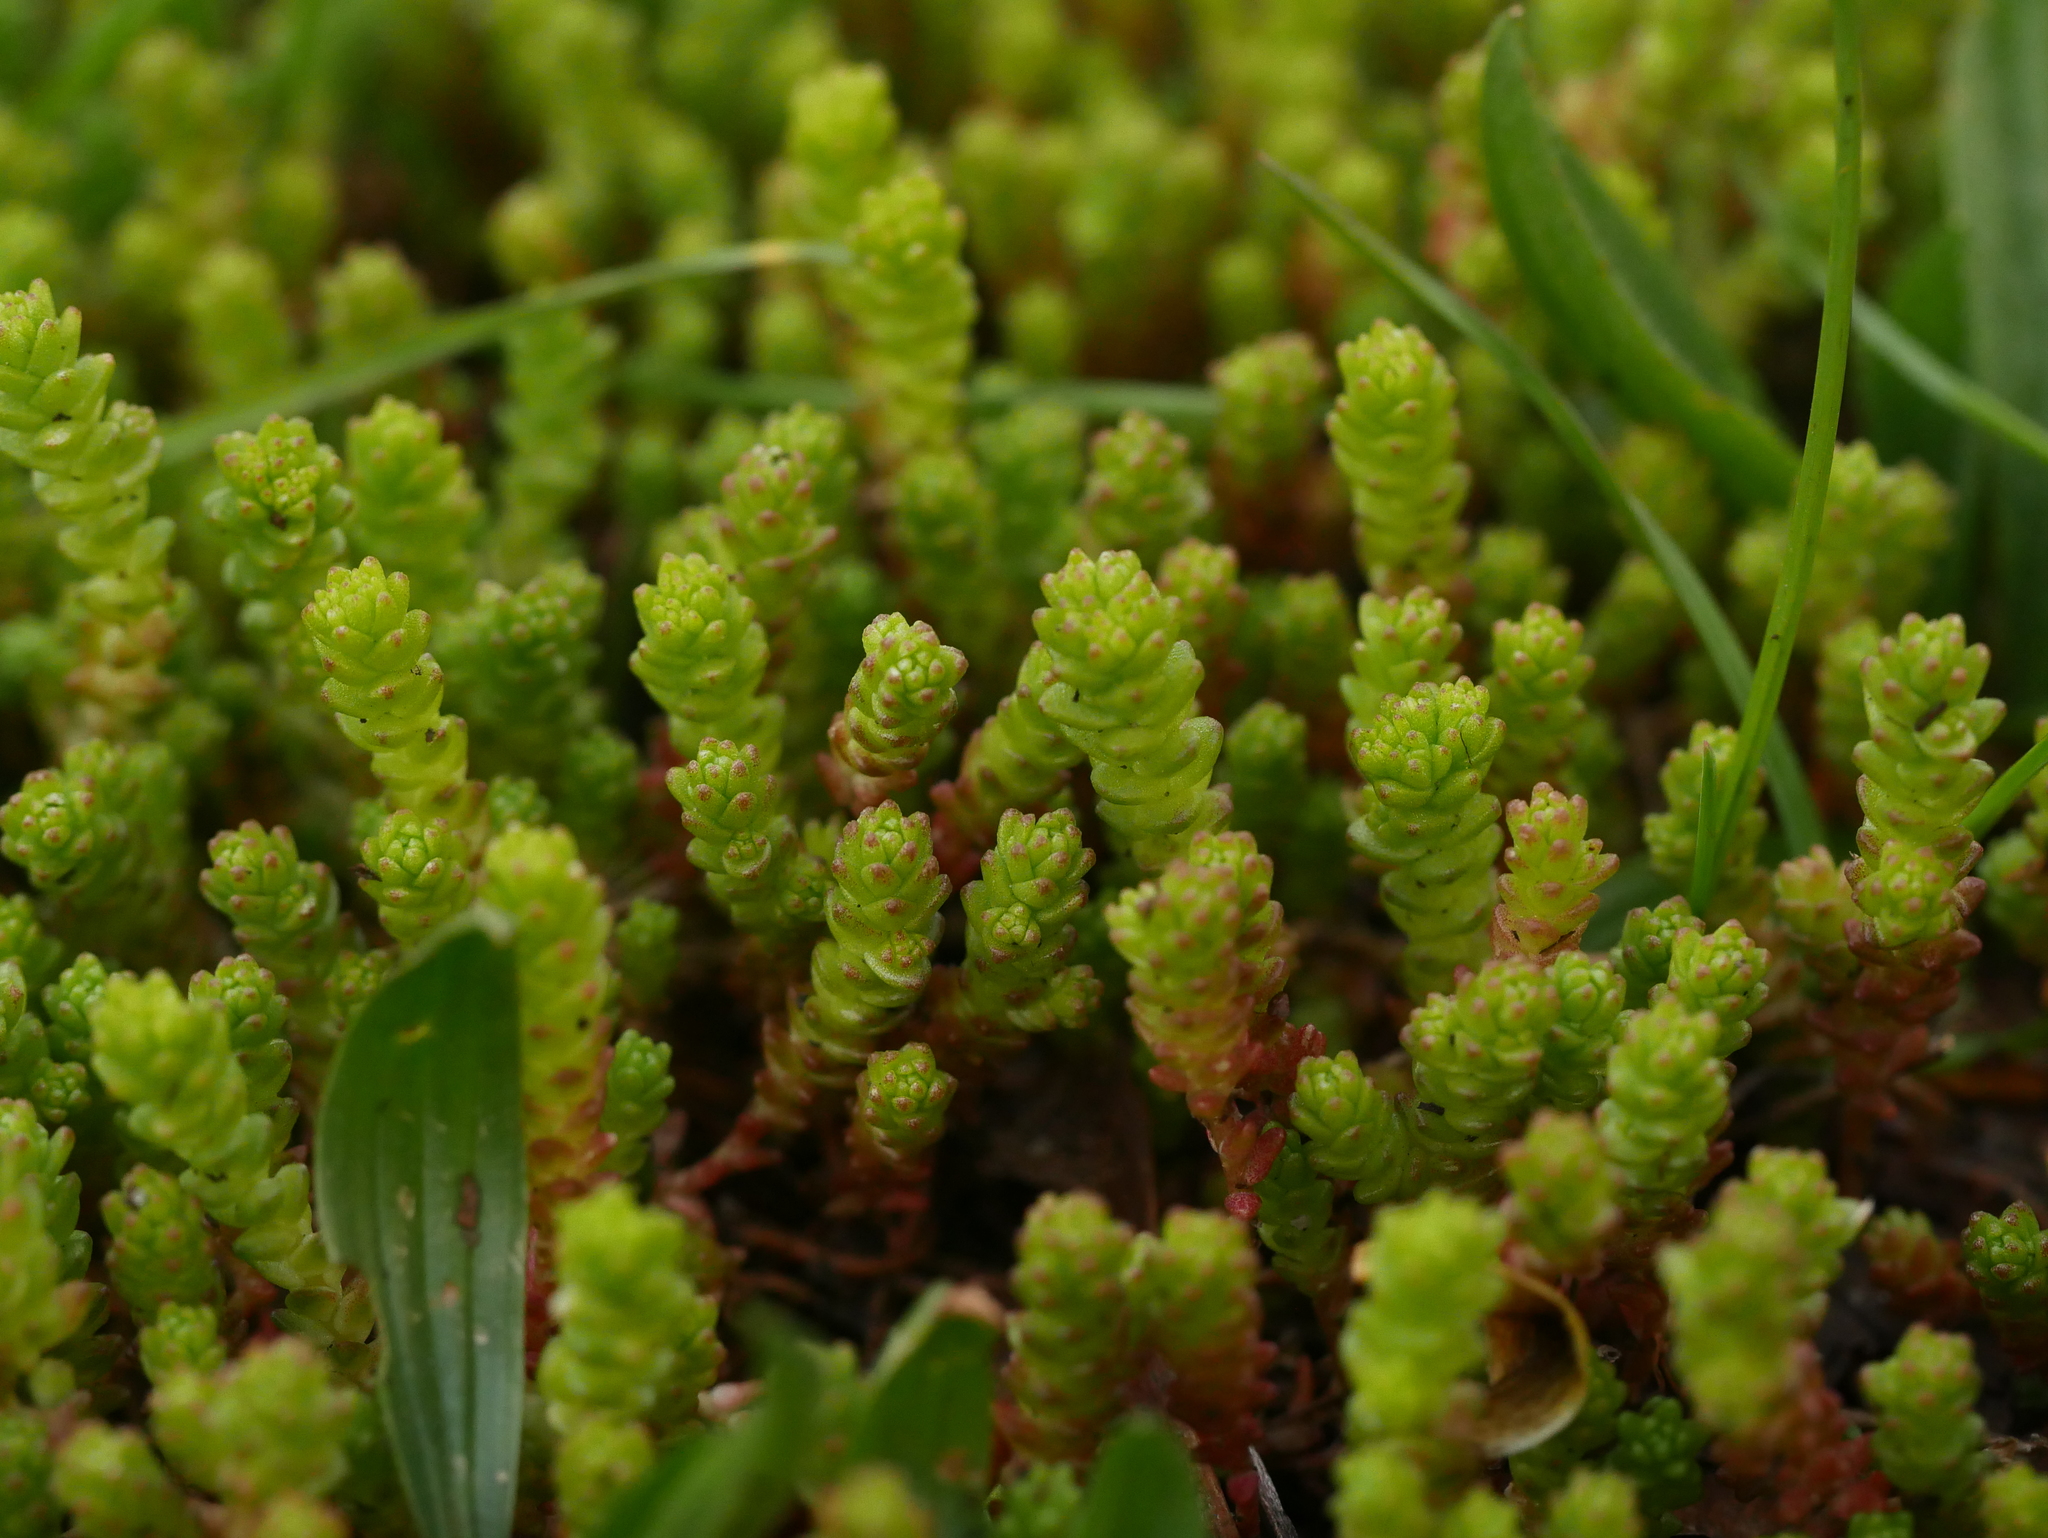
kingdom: Plantae
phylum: Tracheophyta
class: Magnoliopsida
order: Saxifragales
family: Crassulaceae
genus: Sedum
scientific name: Sedum acre
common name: Biting stonecrop
